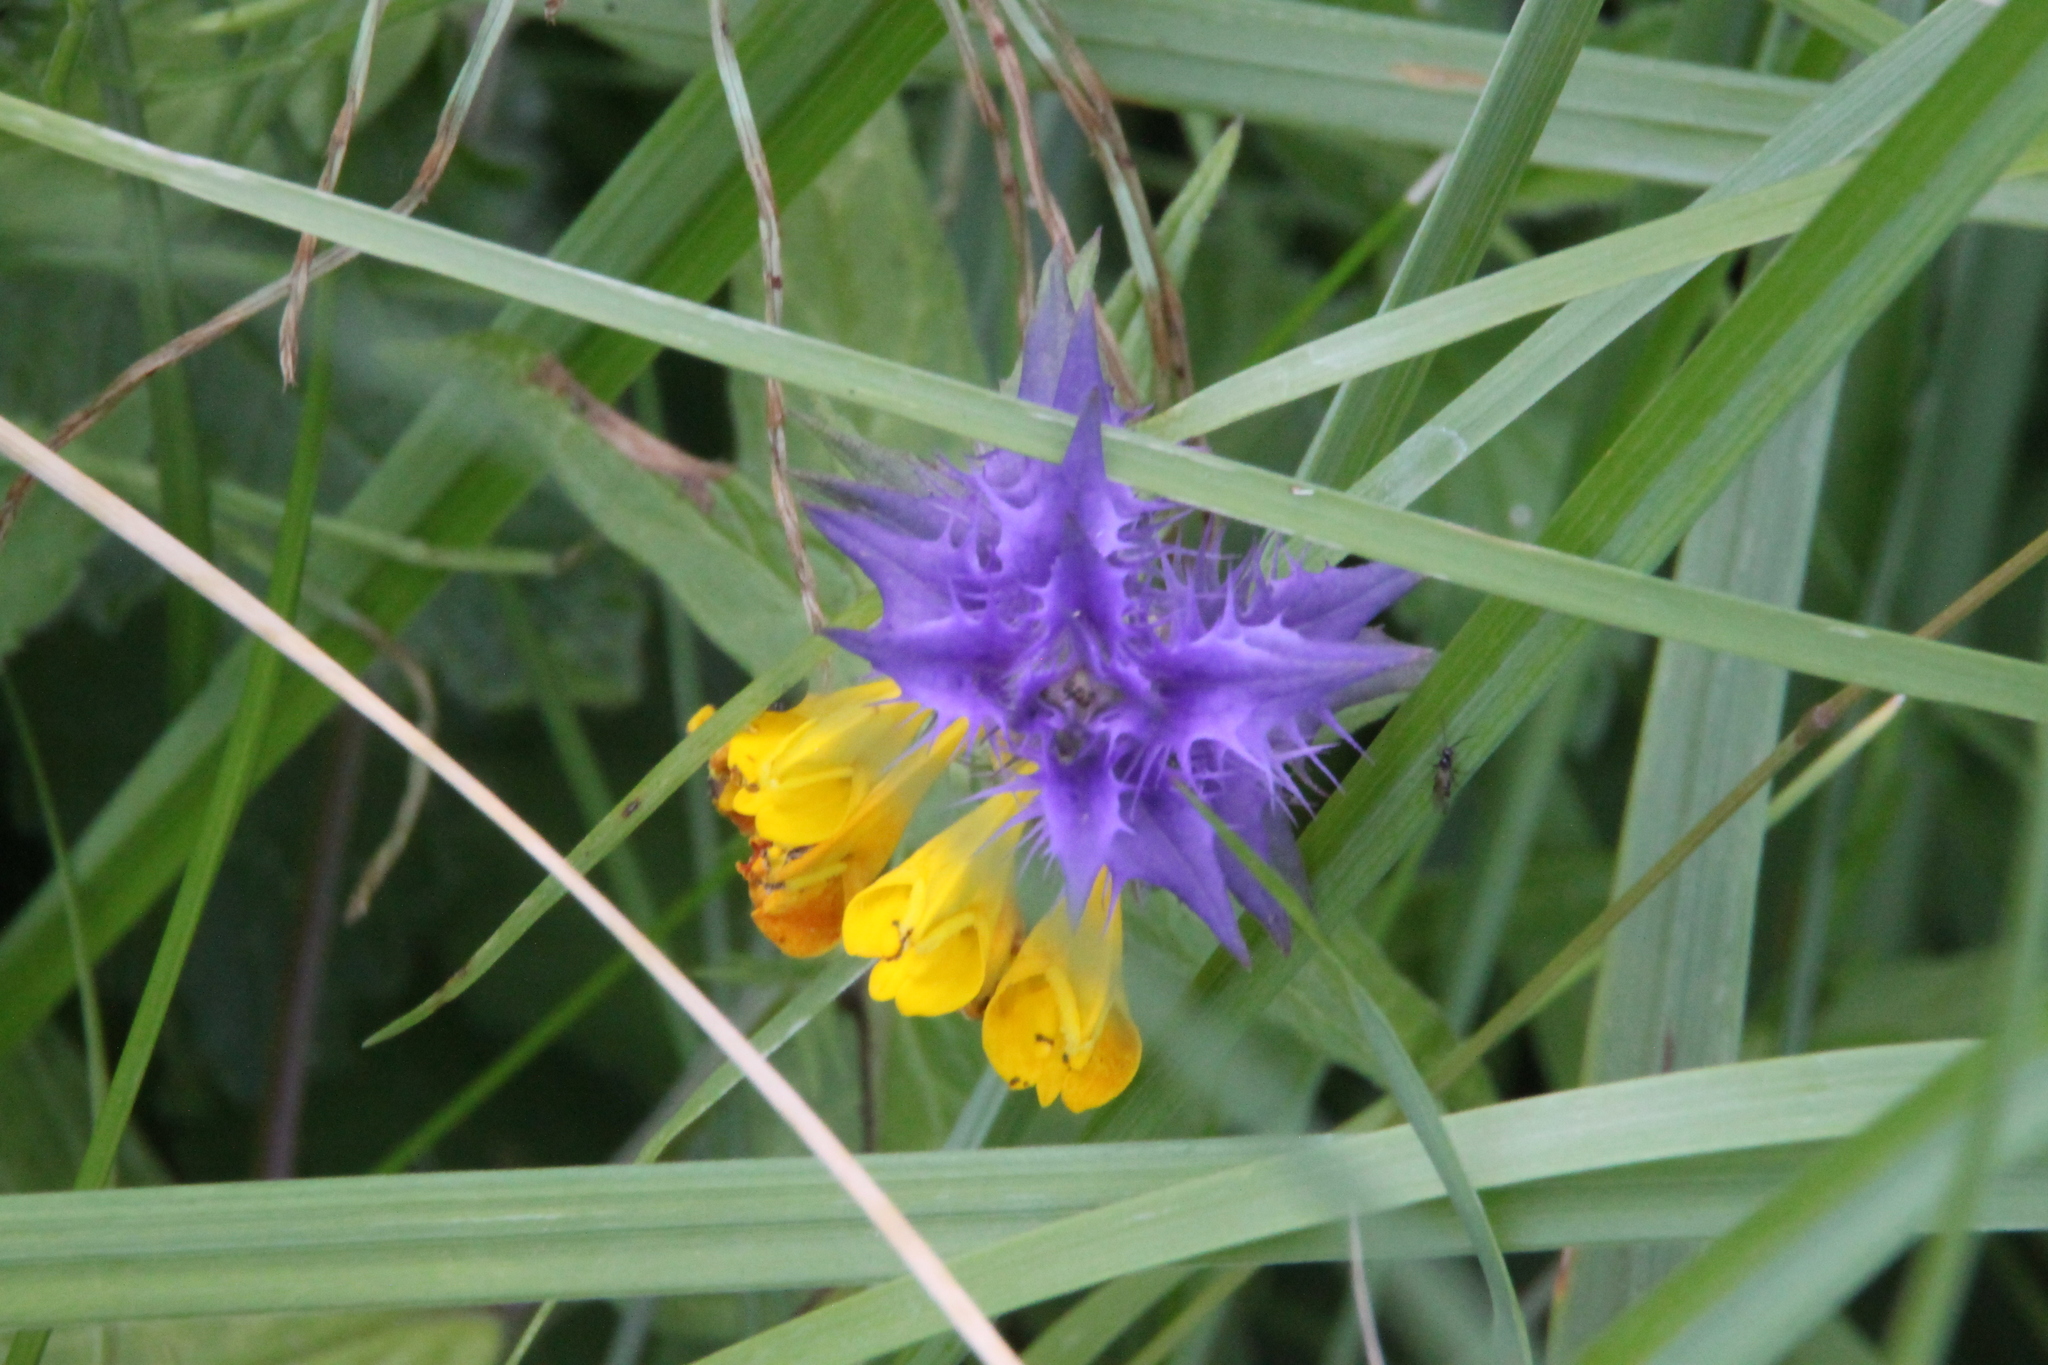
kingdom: Plantae
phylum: Tracheophyta
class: Magnoliopsida
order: Lamiales
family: Orobanchaceae
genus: Melampyrum
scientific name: Melampyrum nemorosum
